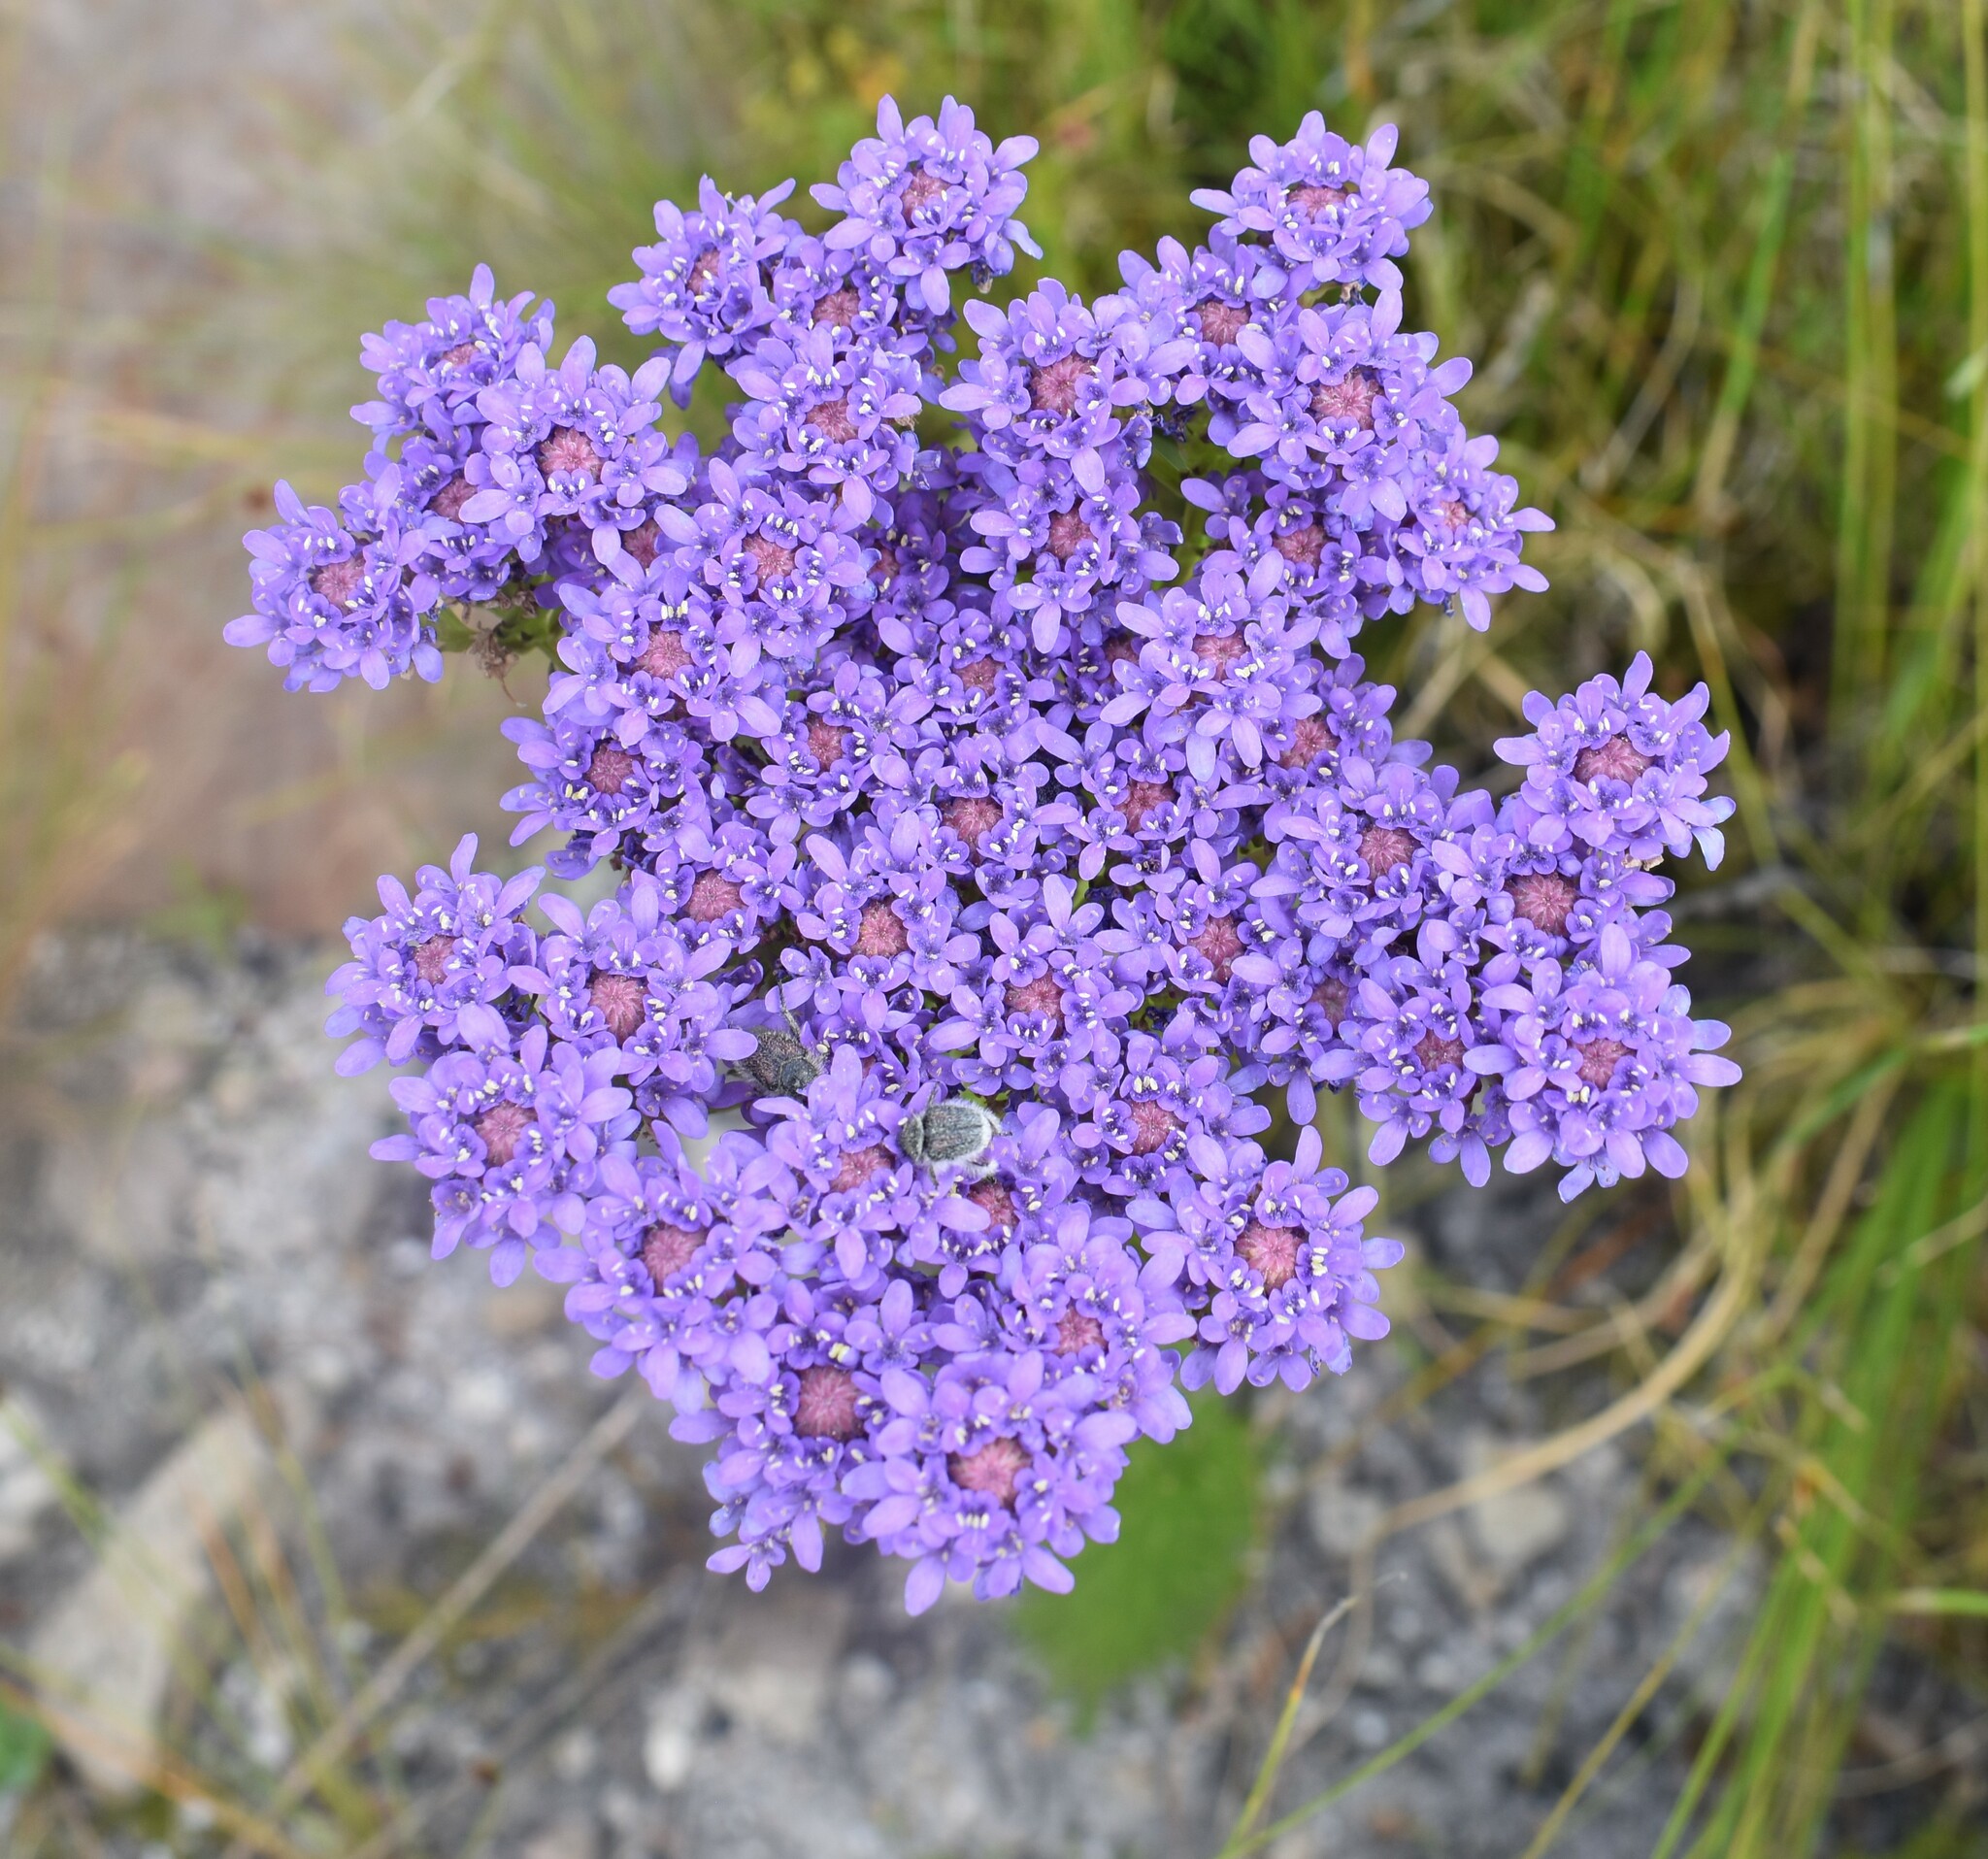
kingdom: Plantae
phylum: Tracheophyta
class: Magnoliopsida
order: Lamiales
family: Scrophulariaceae
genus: Pseudoselago
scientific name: Pseudoselago spuria
